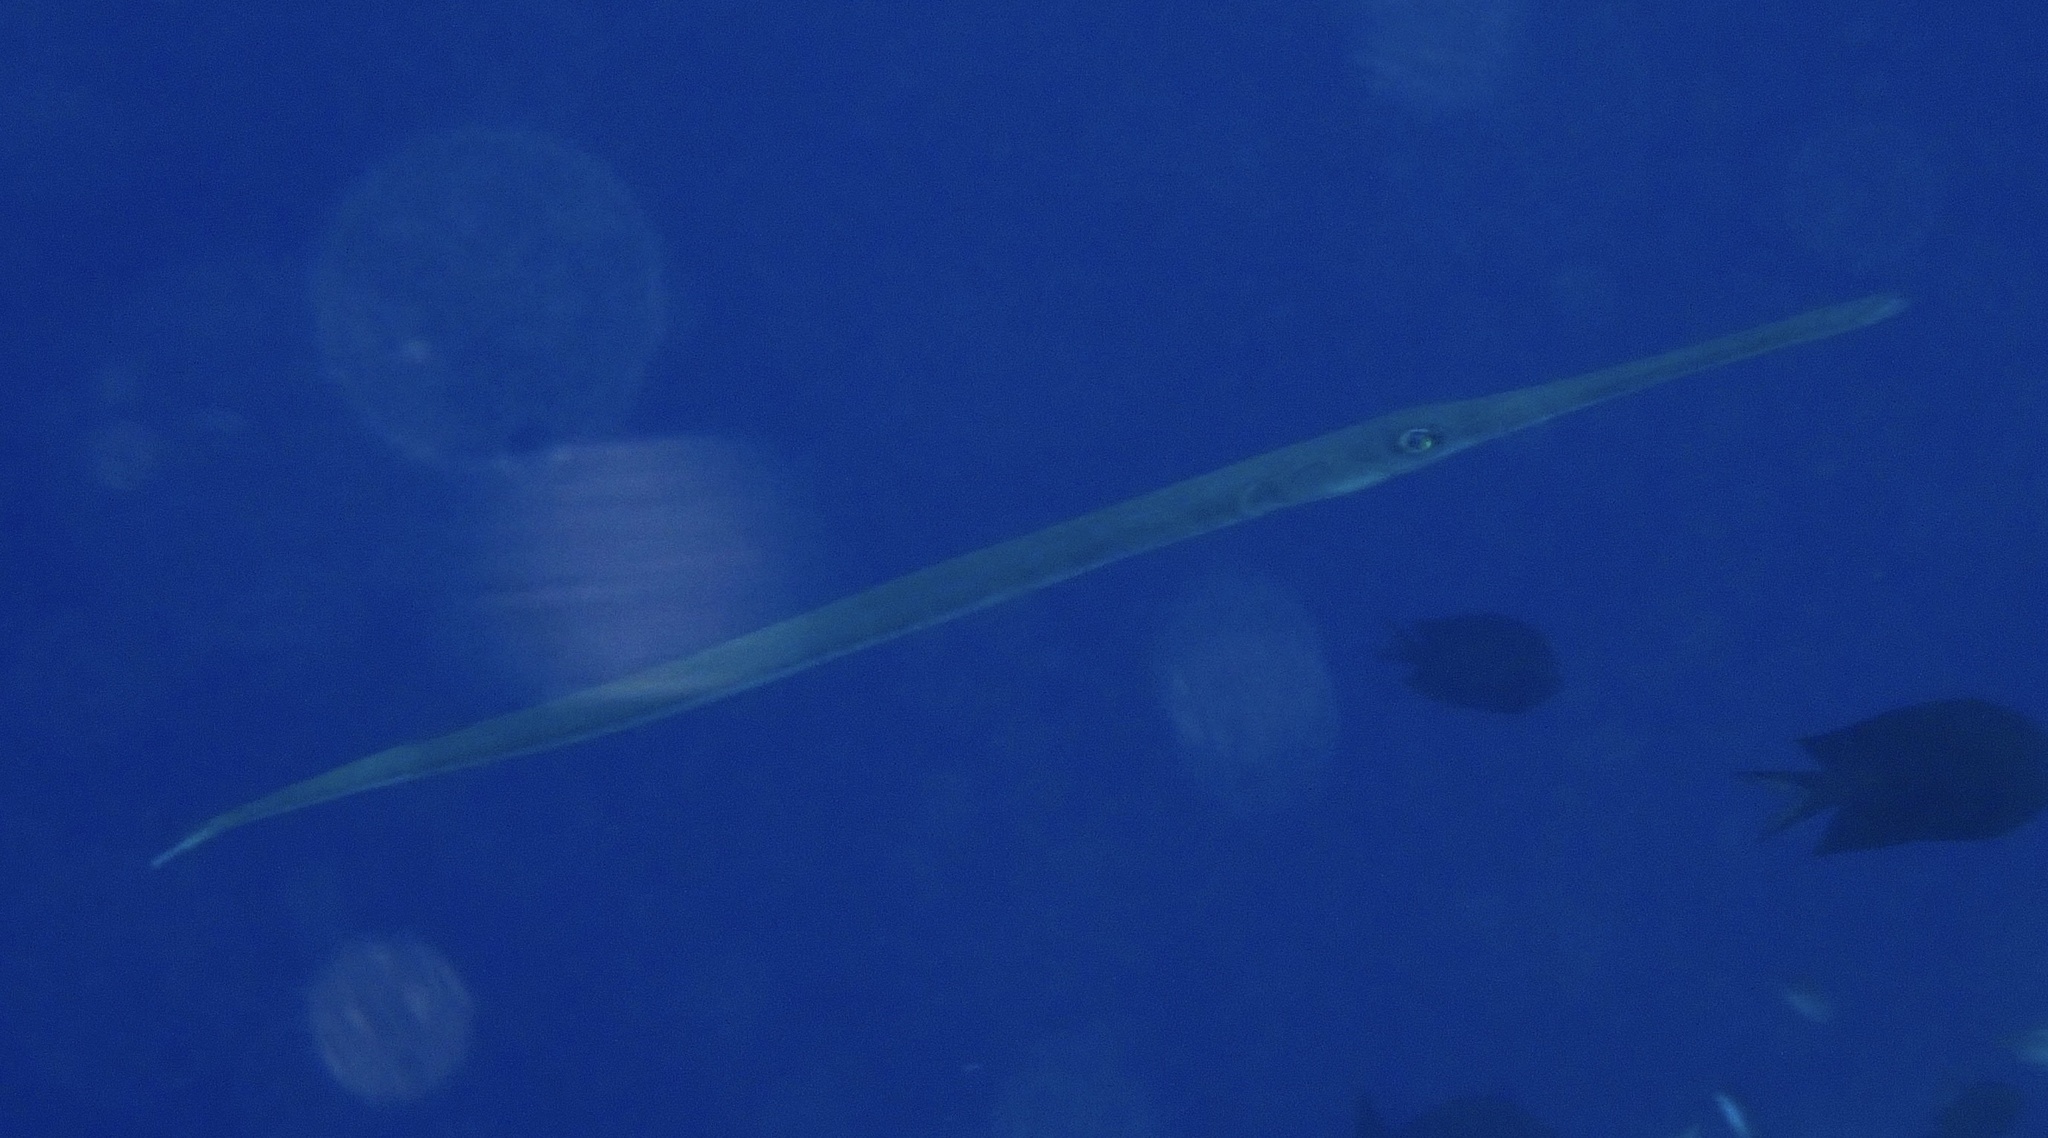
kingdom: Animalia
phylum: Chordata
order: Syngnathiformes
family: Fistulariidae
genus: Fistularia
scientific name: Fistularia commersonii
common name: Bluespotted cornetfish
